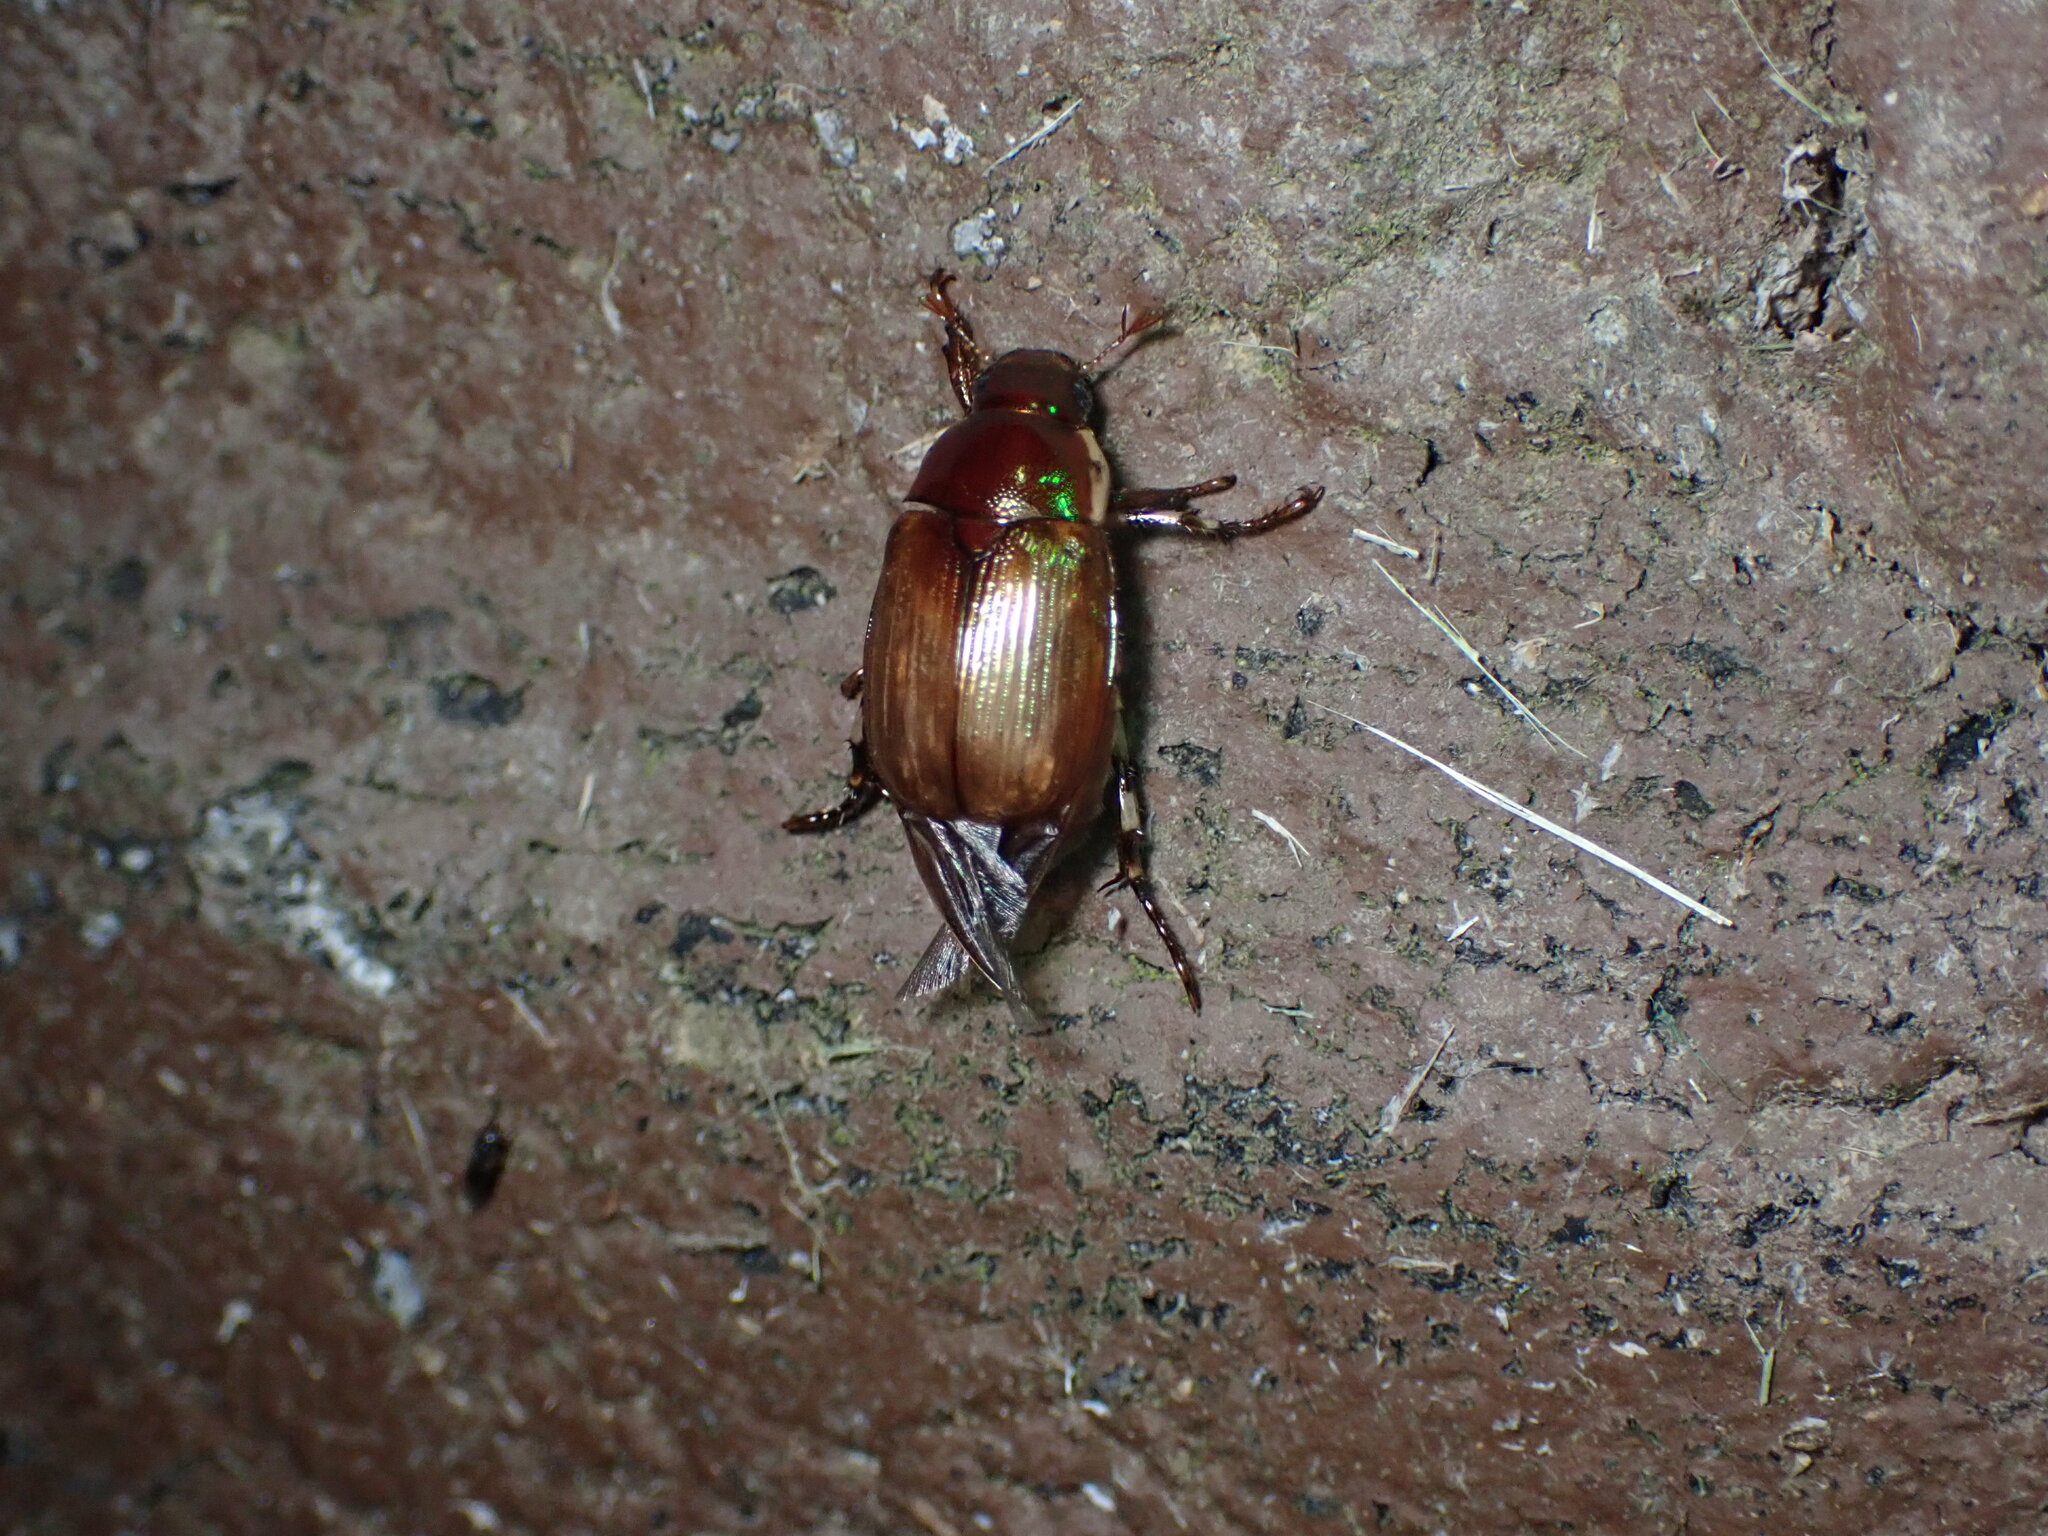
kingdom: Animalia
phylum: Arthropoda
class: Insecta
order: Coleoptera
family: Scarabaeidae
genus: Callistethus
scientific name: Callistethus marginatus
